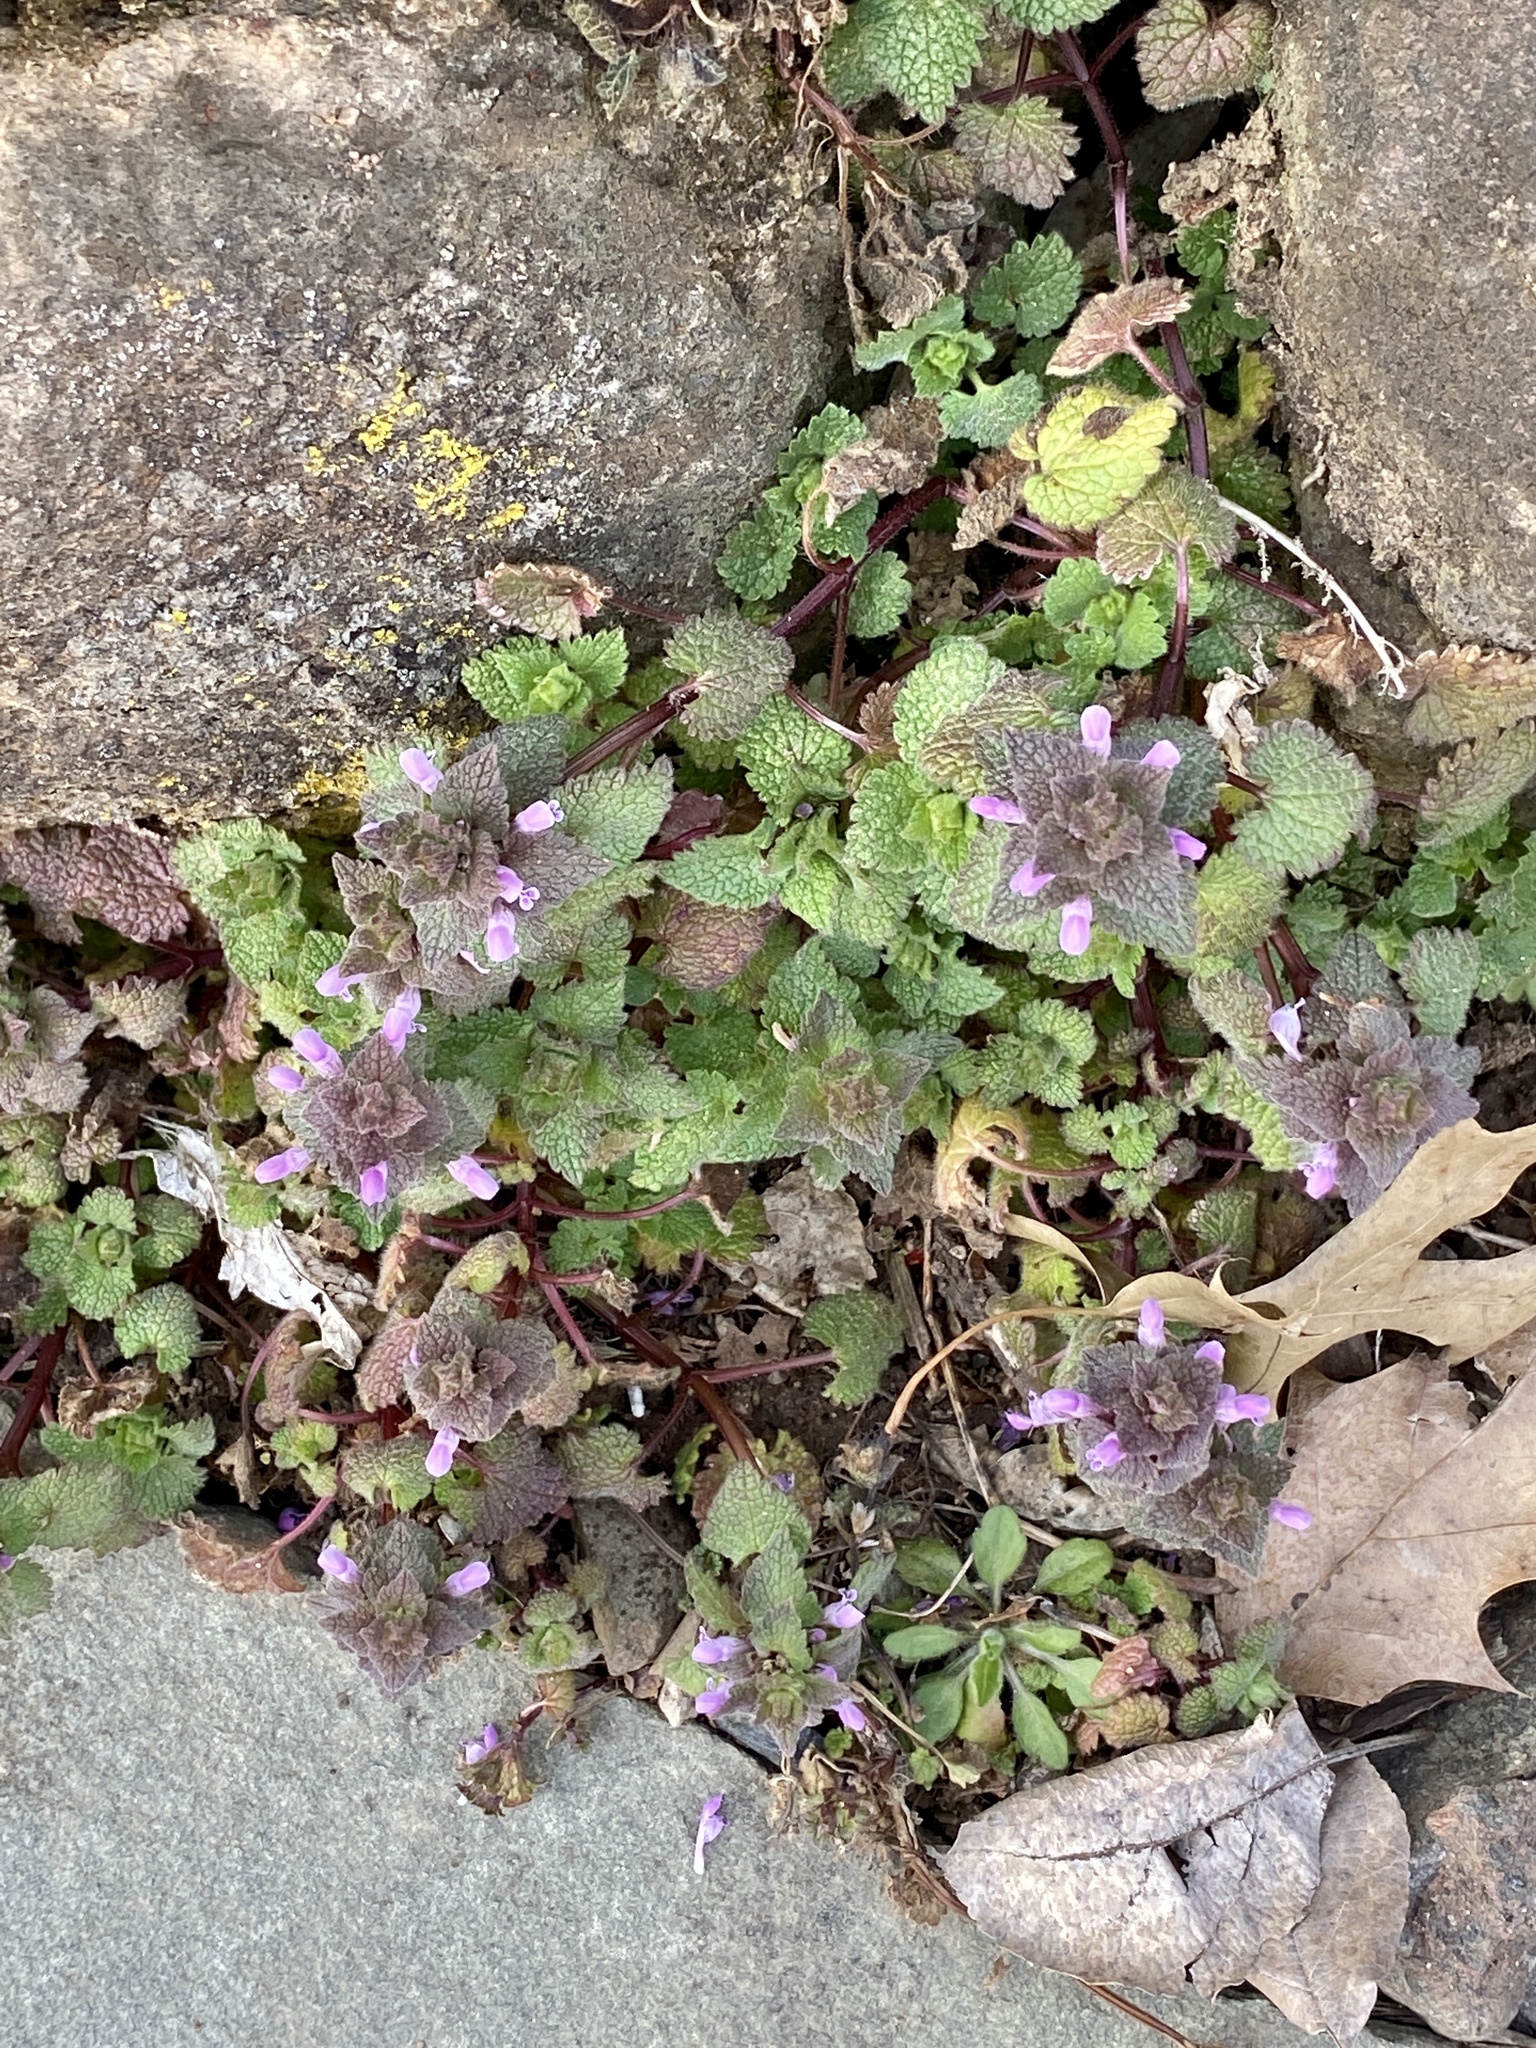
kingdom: Plantae
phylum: Tracheophyta
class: Magnoliopsida
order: Lamiales
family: Lamiaceae
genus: Lamium
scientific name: Lamium purpureum
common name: Red dead-nettle
